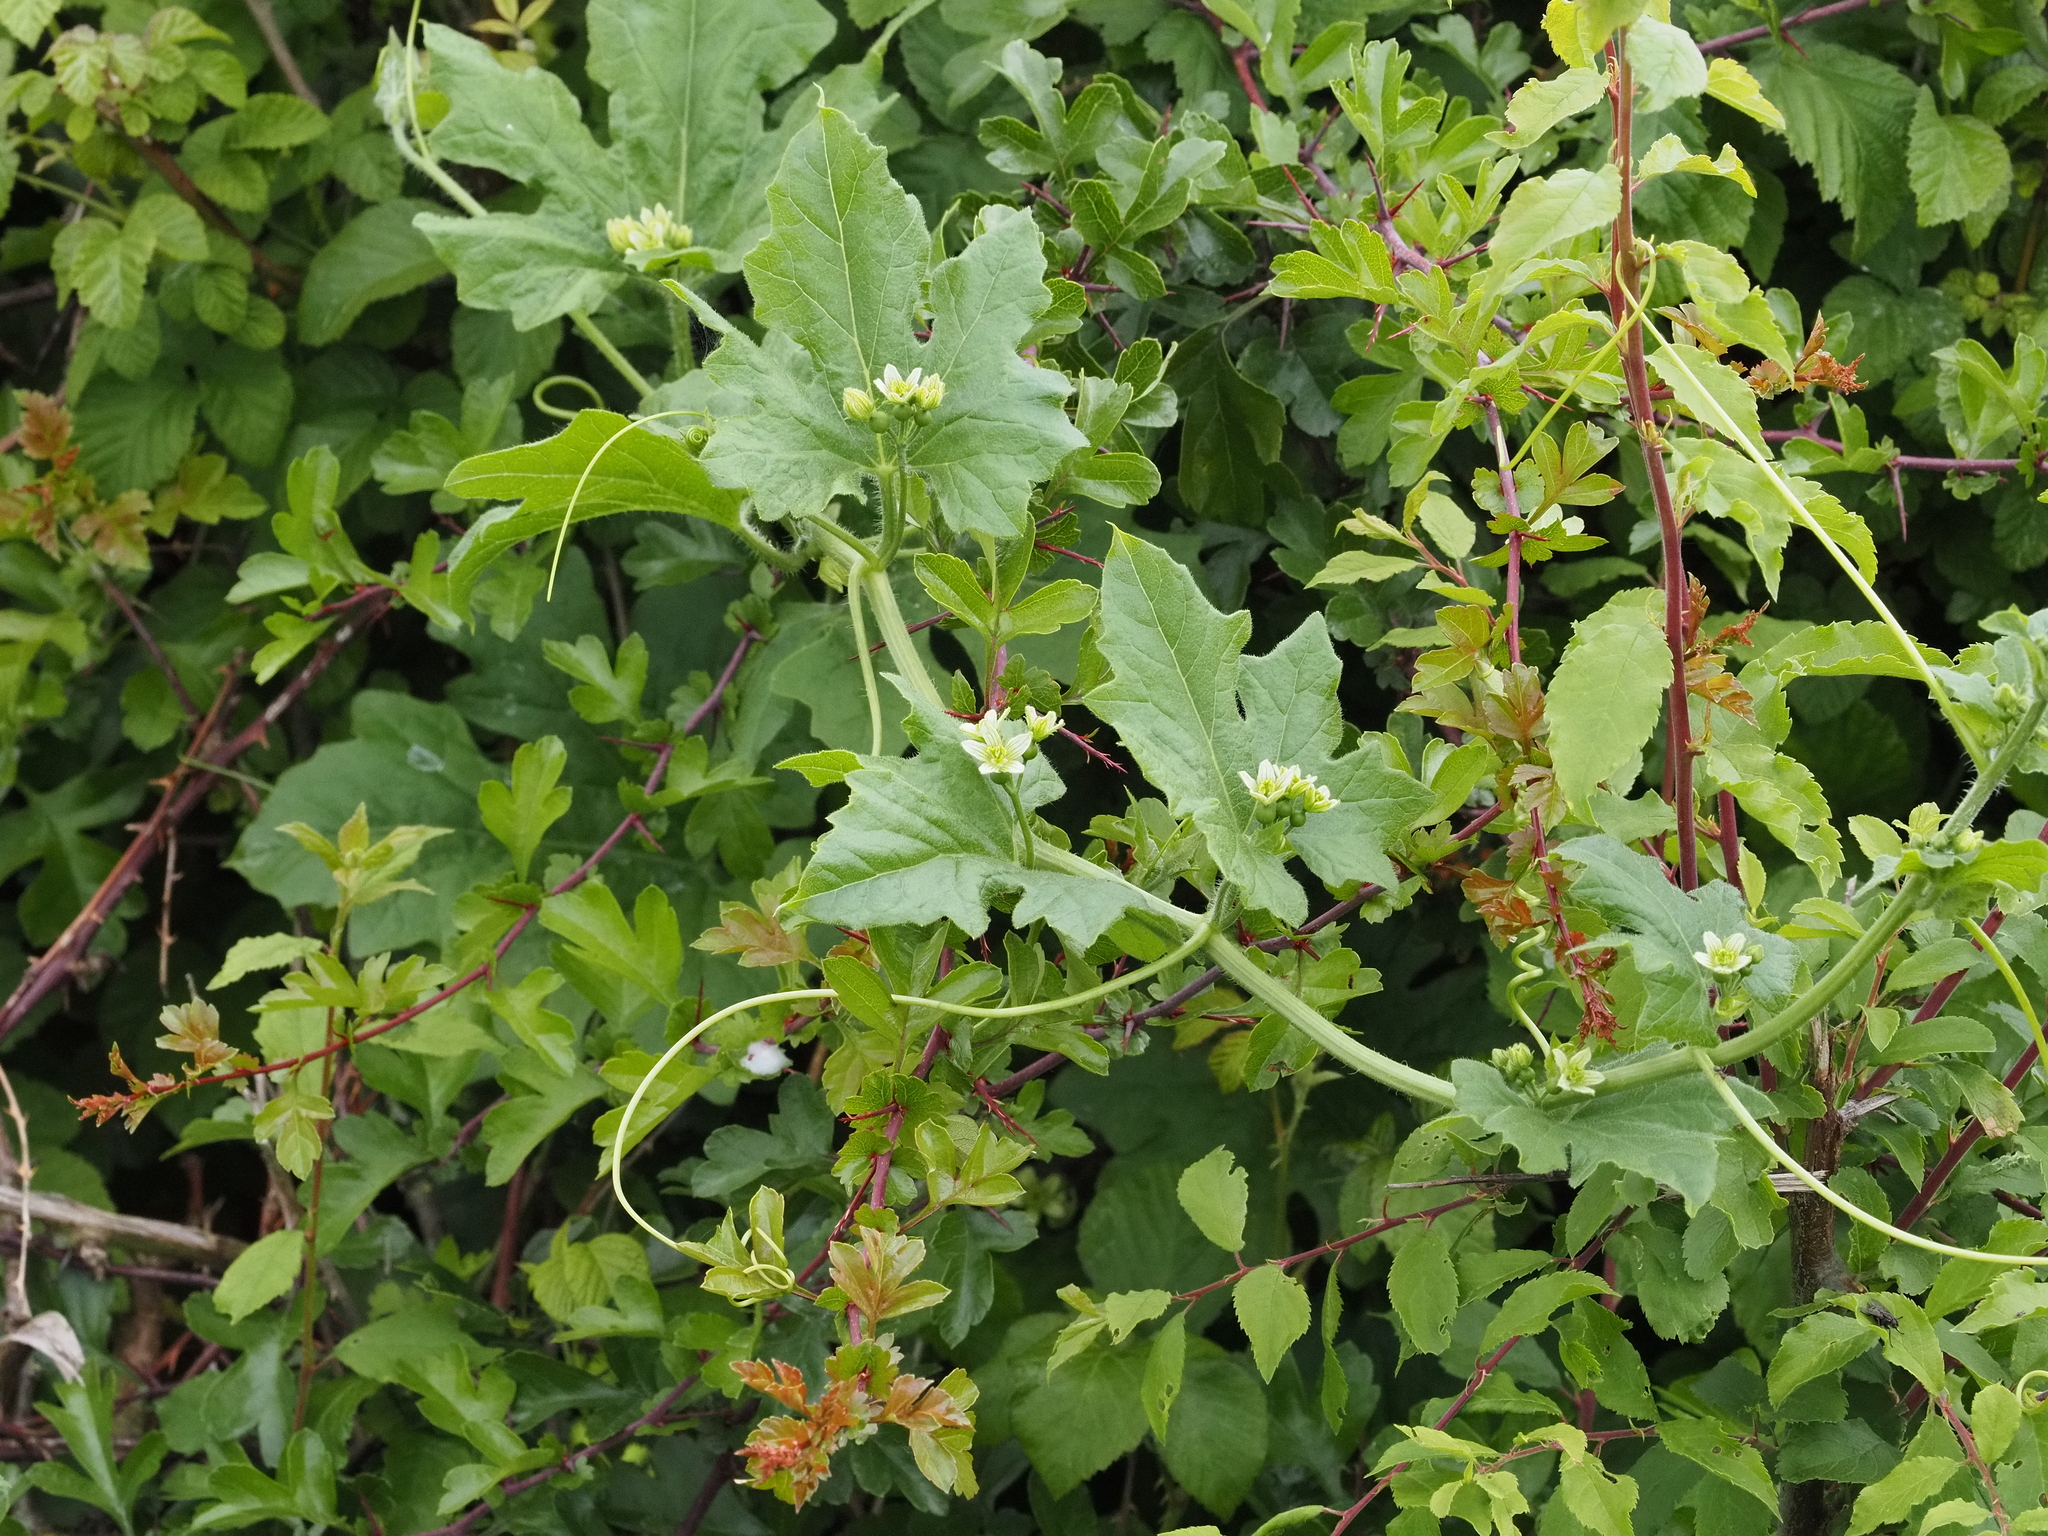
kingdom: Plantae
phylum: Tracheophyta
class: Magnoliopsida
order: Cucurbitales
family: Cucurbitaceae
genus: Bryonia
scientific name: Bryonia cretica
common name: Cretan bryony
